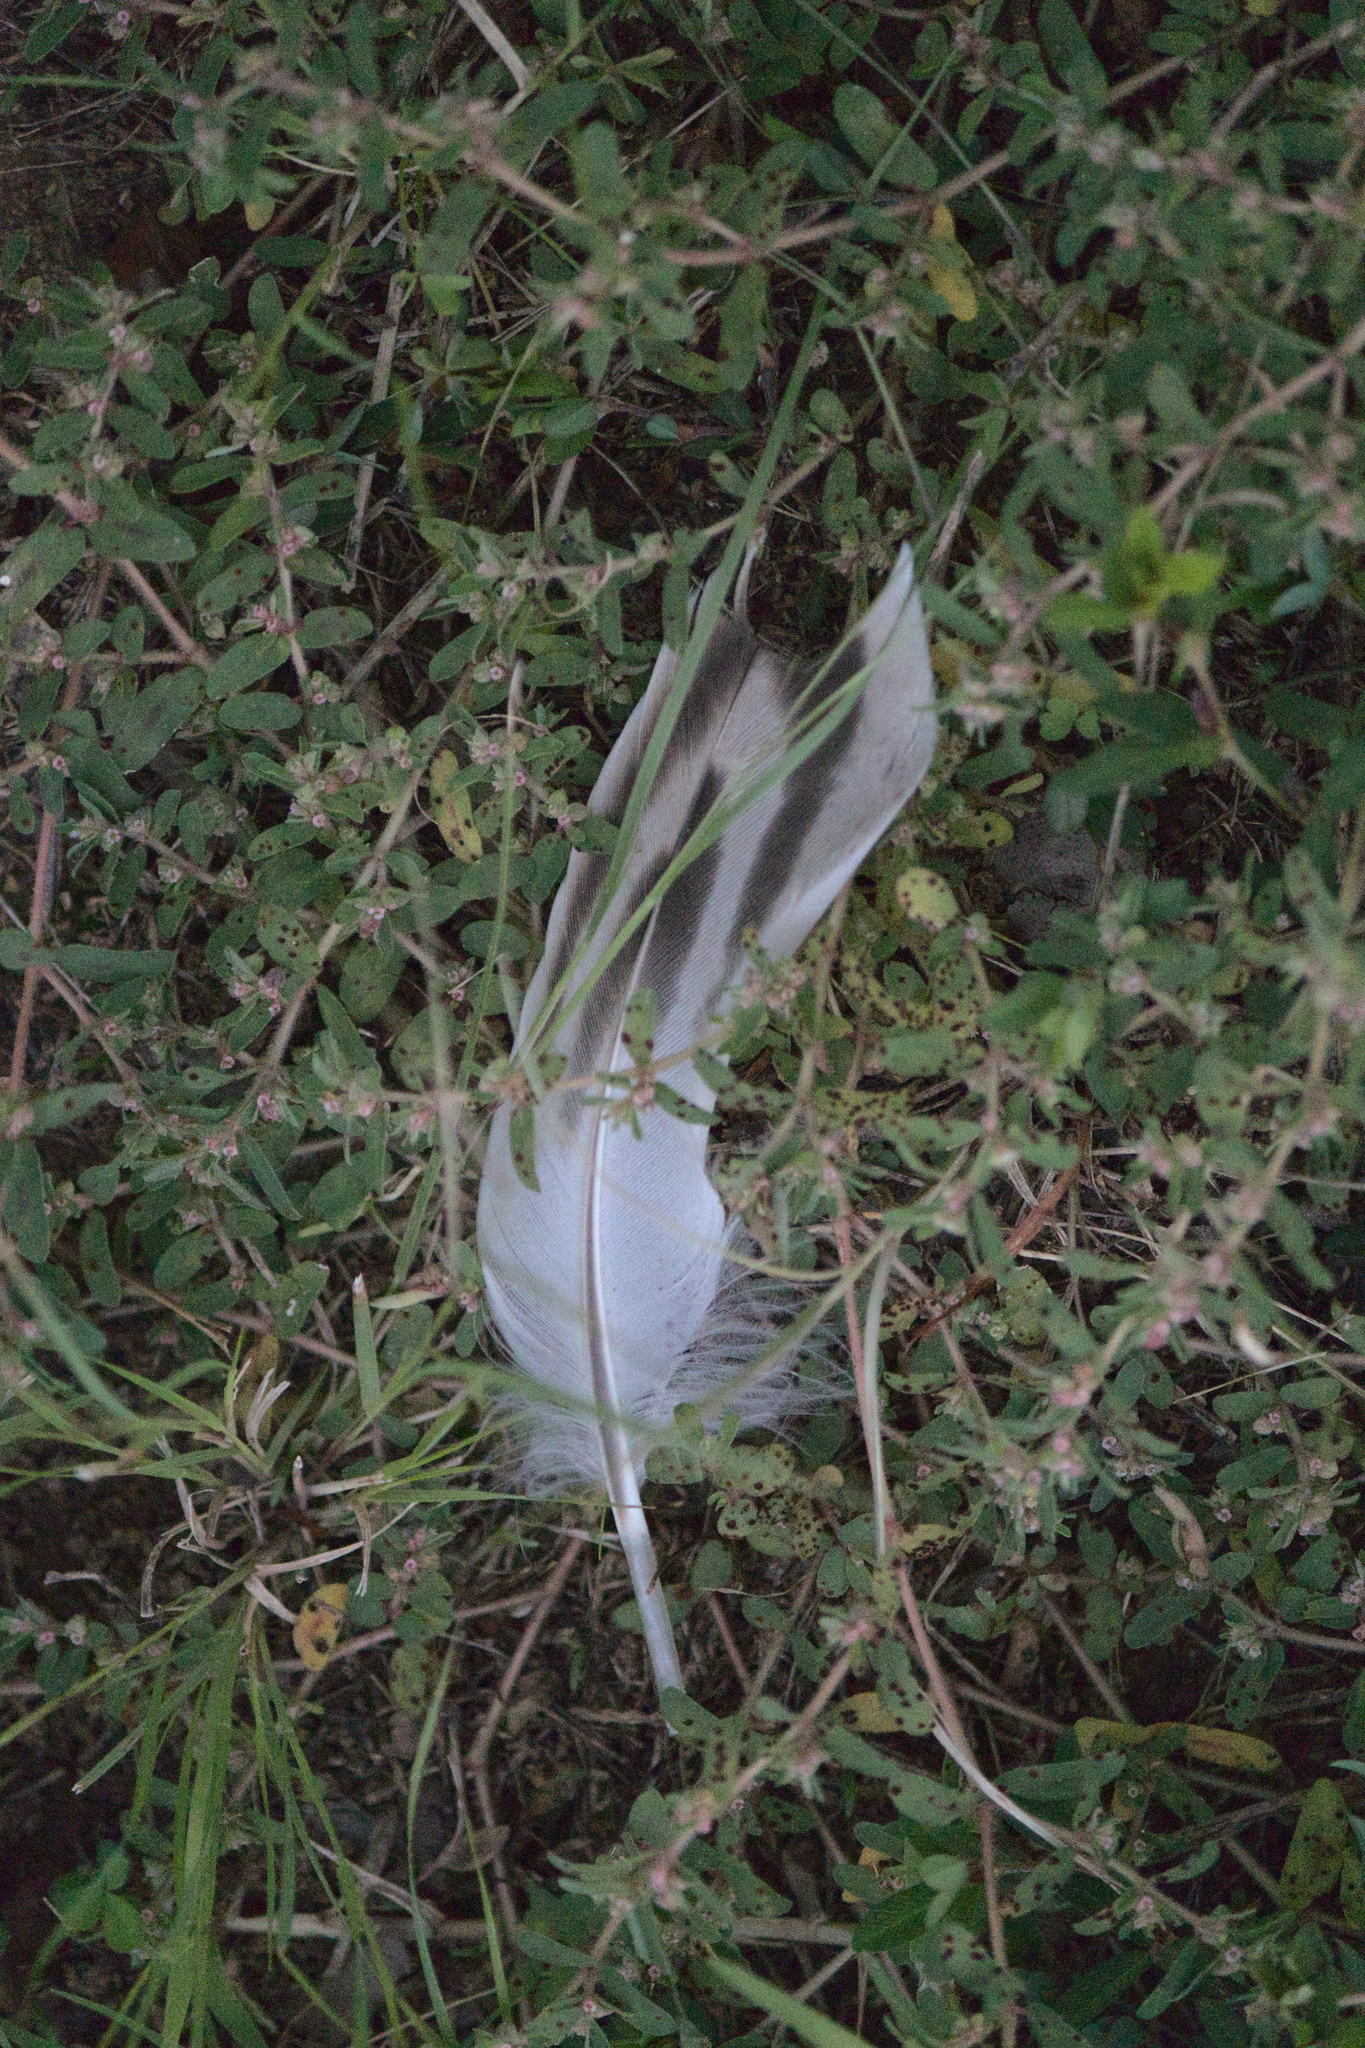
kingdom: Animalia
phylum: Chordata
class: Aves
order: Anseriformes
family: Anatidae
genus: Anas
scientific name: Anas platyrhynchos
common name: Mallard
